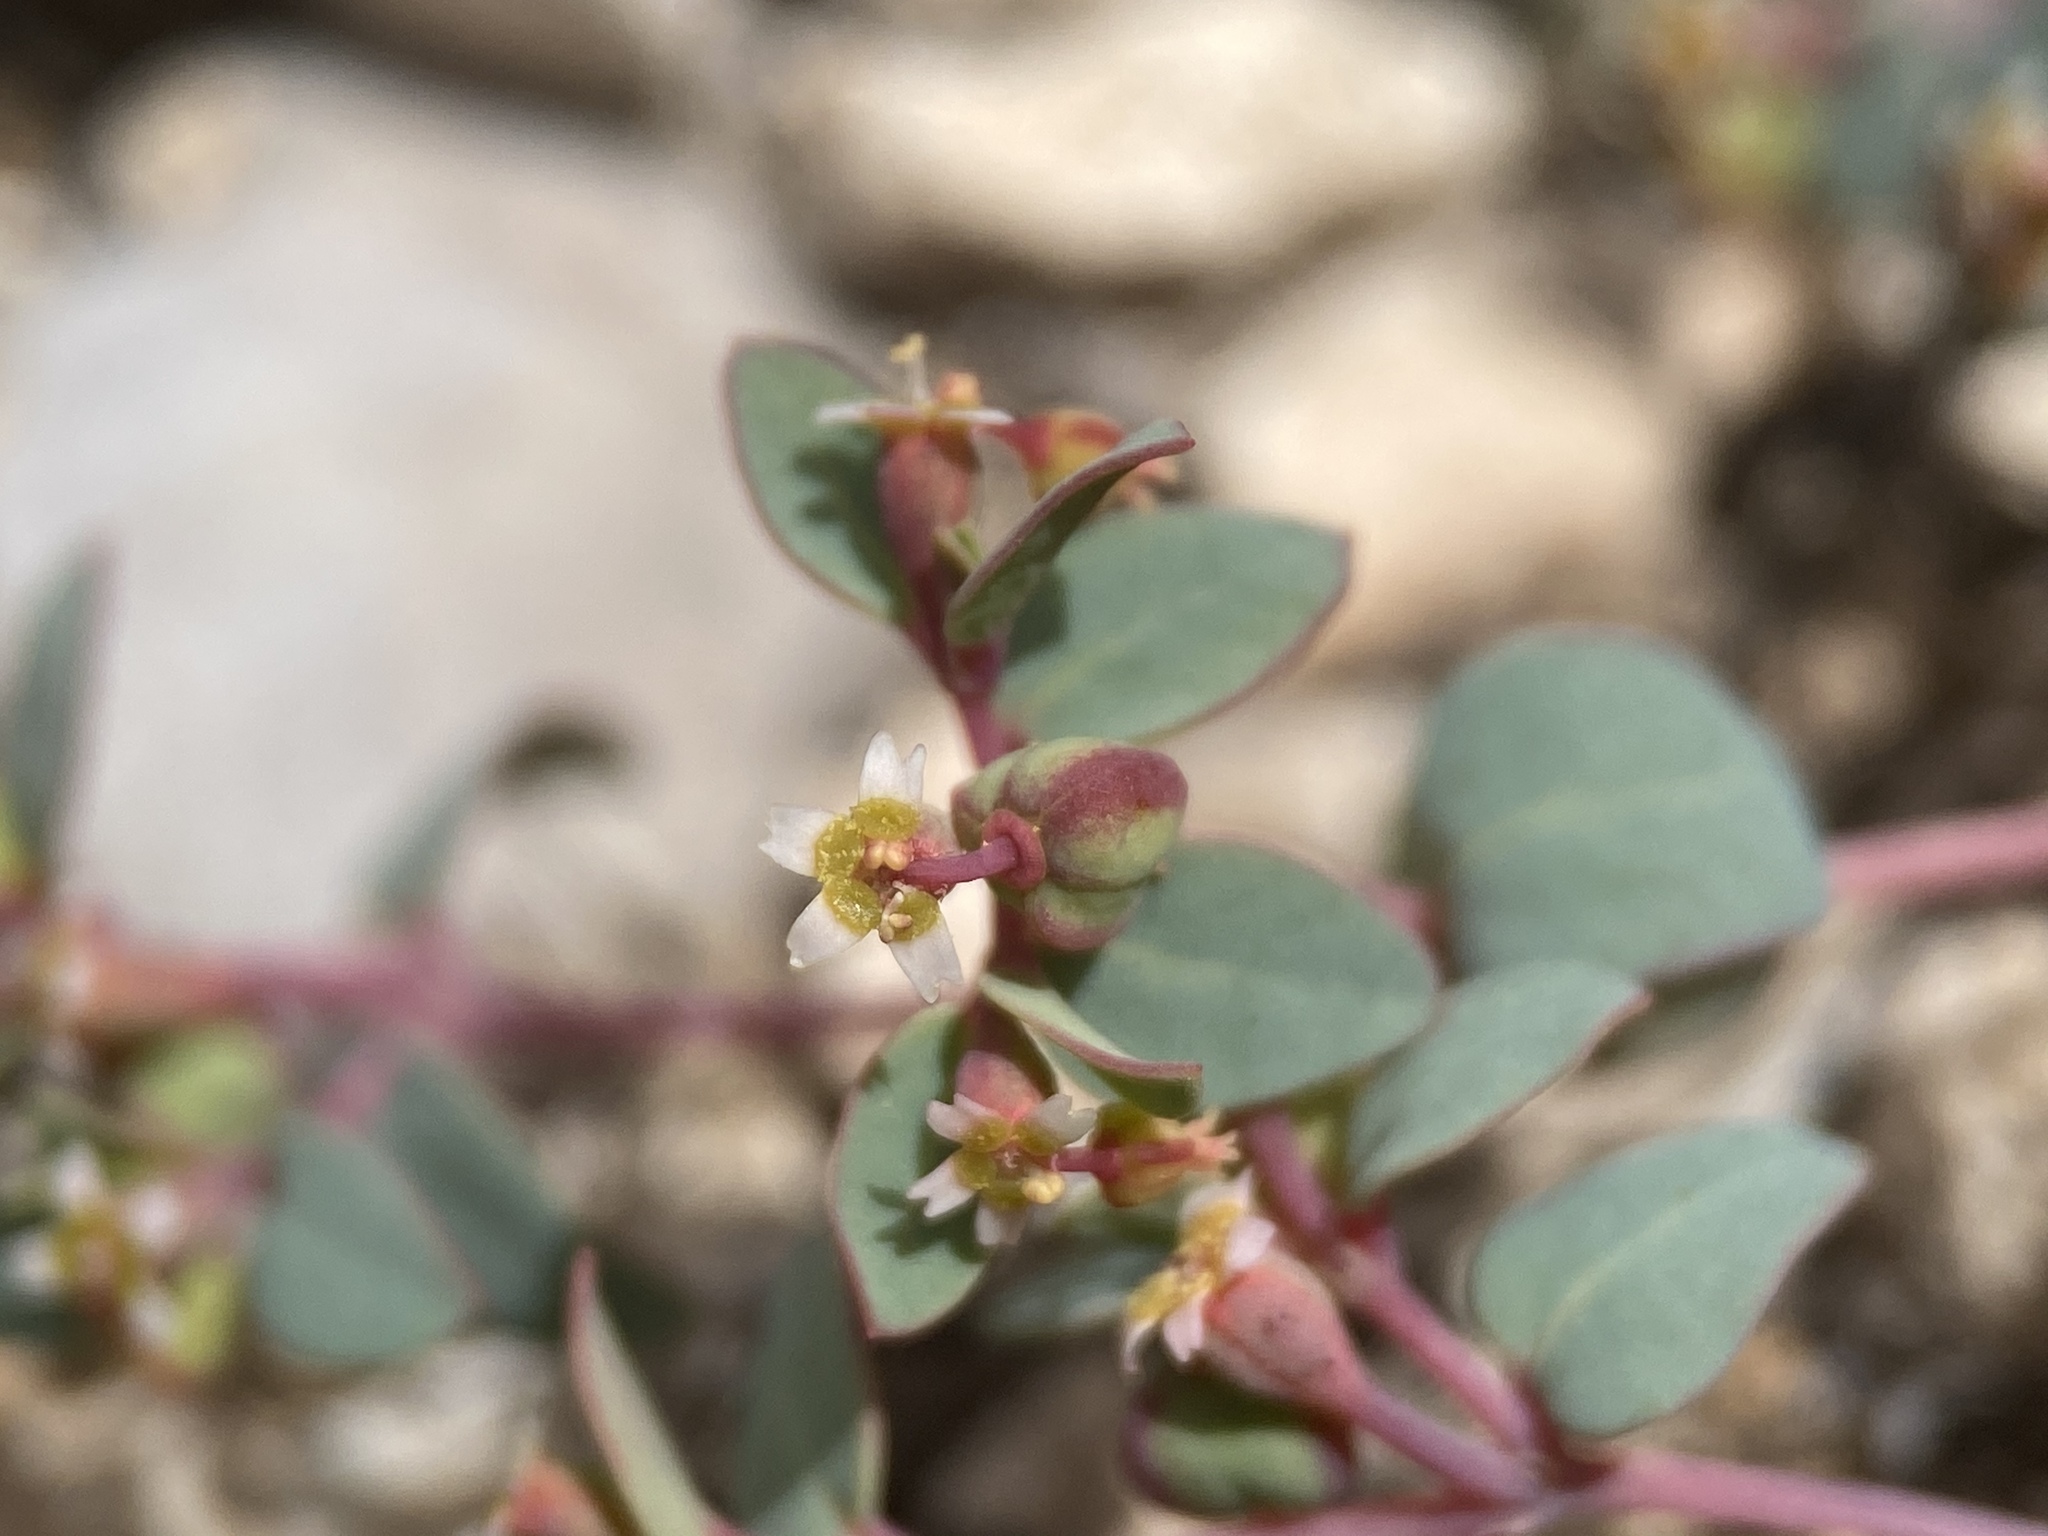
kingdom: Plantae
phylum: Tracheophyta
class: Magnoliopsida
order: Malpighiales
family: Euphorbiaceae
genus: Euphorbia
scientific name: Euphorbia fendleri
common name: Fendler's euphorbia
